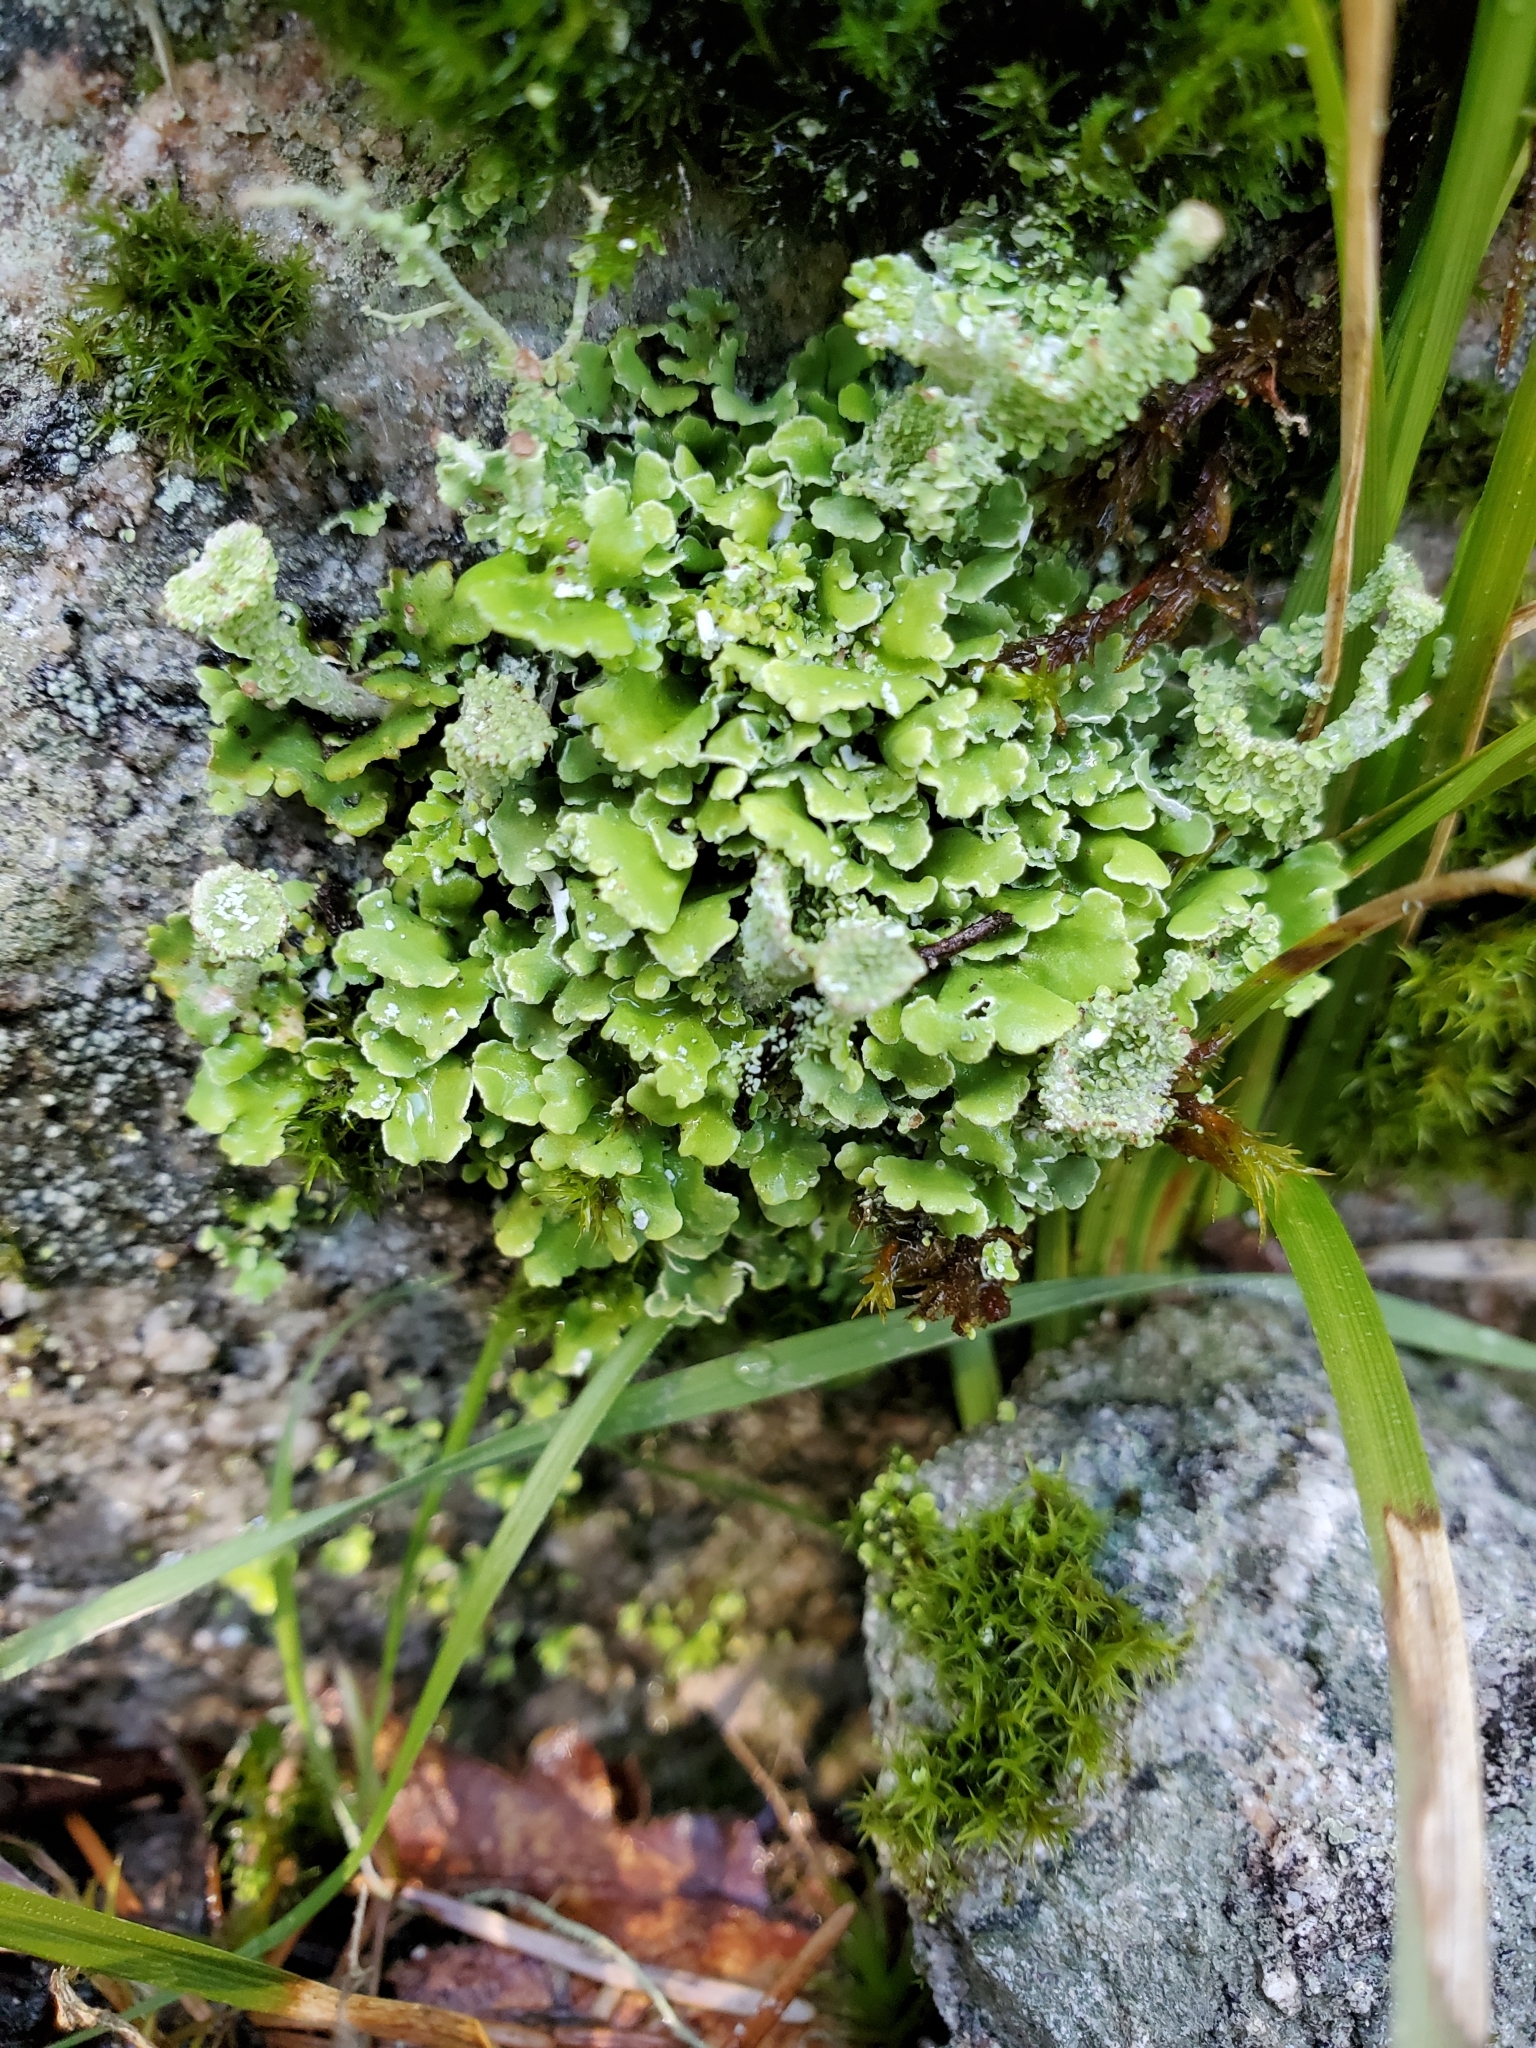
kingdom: Fungi
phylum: Ascomycota
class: Lecanoromycetes
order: Lecanorales
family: Cladoniaceae
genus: Cladonia
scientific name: Cladonia chlorophaea
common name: Mealy pixie cup
